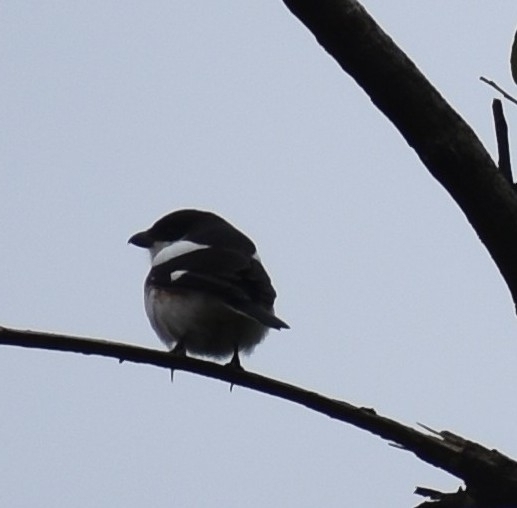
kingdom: Animalia
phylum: Chordata
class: Aves
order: Passeriformes
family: Laniidae
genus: Lanius
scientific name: Lanius collaris
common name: Southern fiscal
